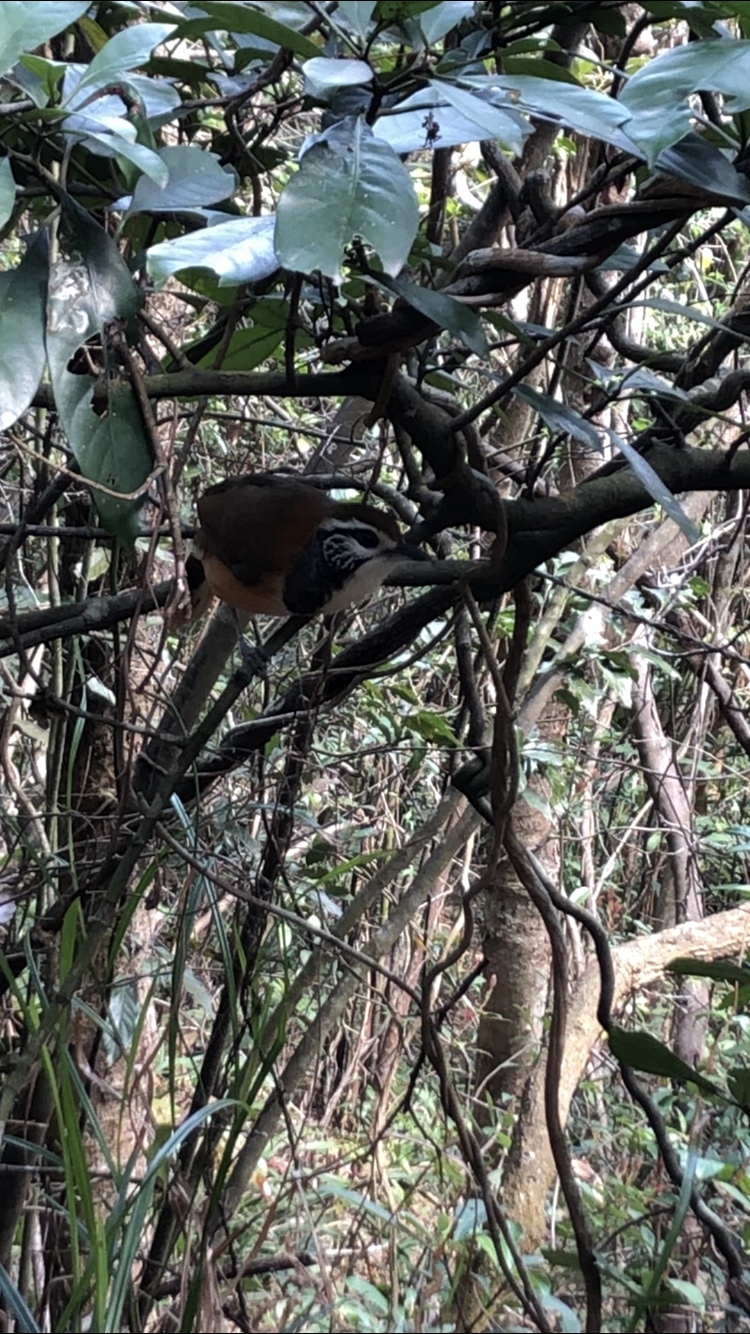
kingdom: Animalia
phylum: Chordata
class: Aves
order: Passeriformes
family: Leiothrichidae
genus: Garrulax
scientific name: Garrulax pectoralis
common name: Greater necklaced laughingthrush
